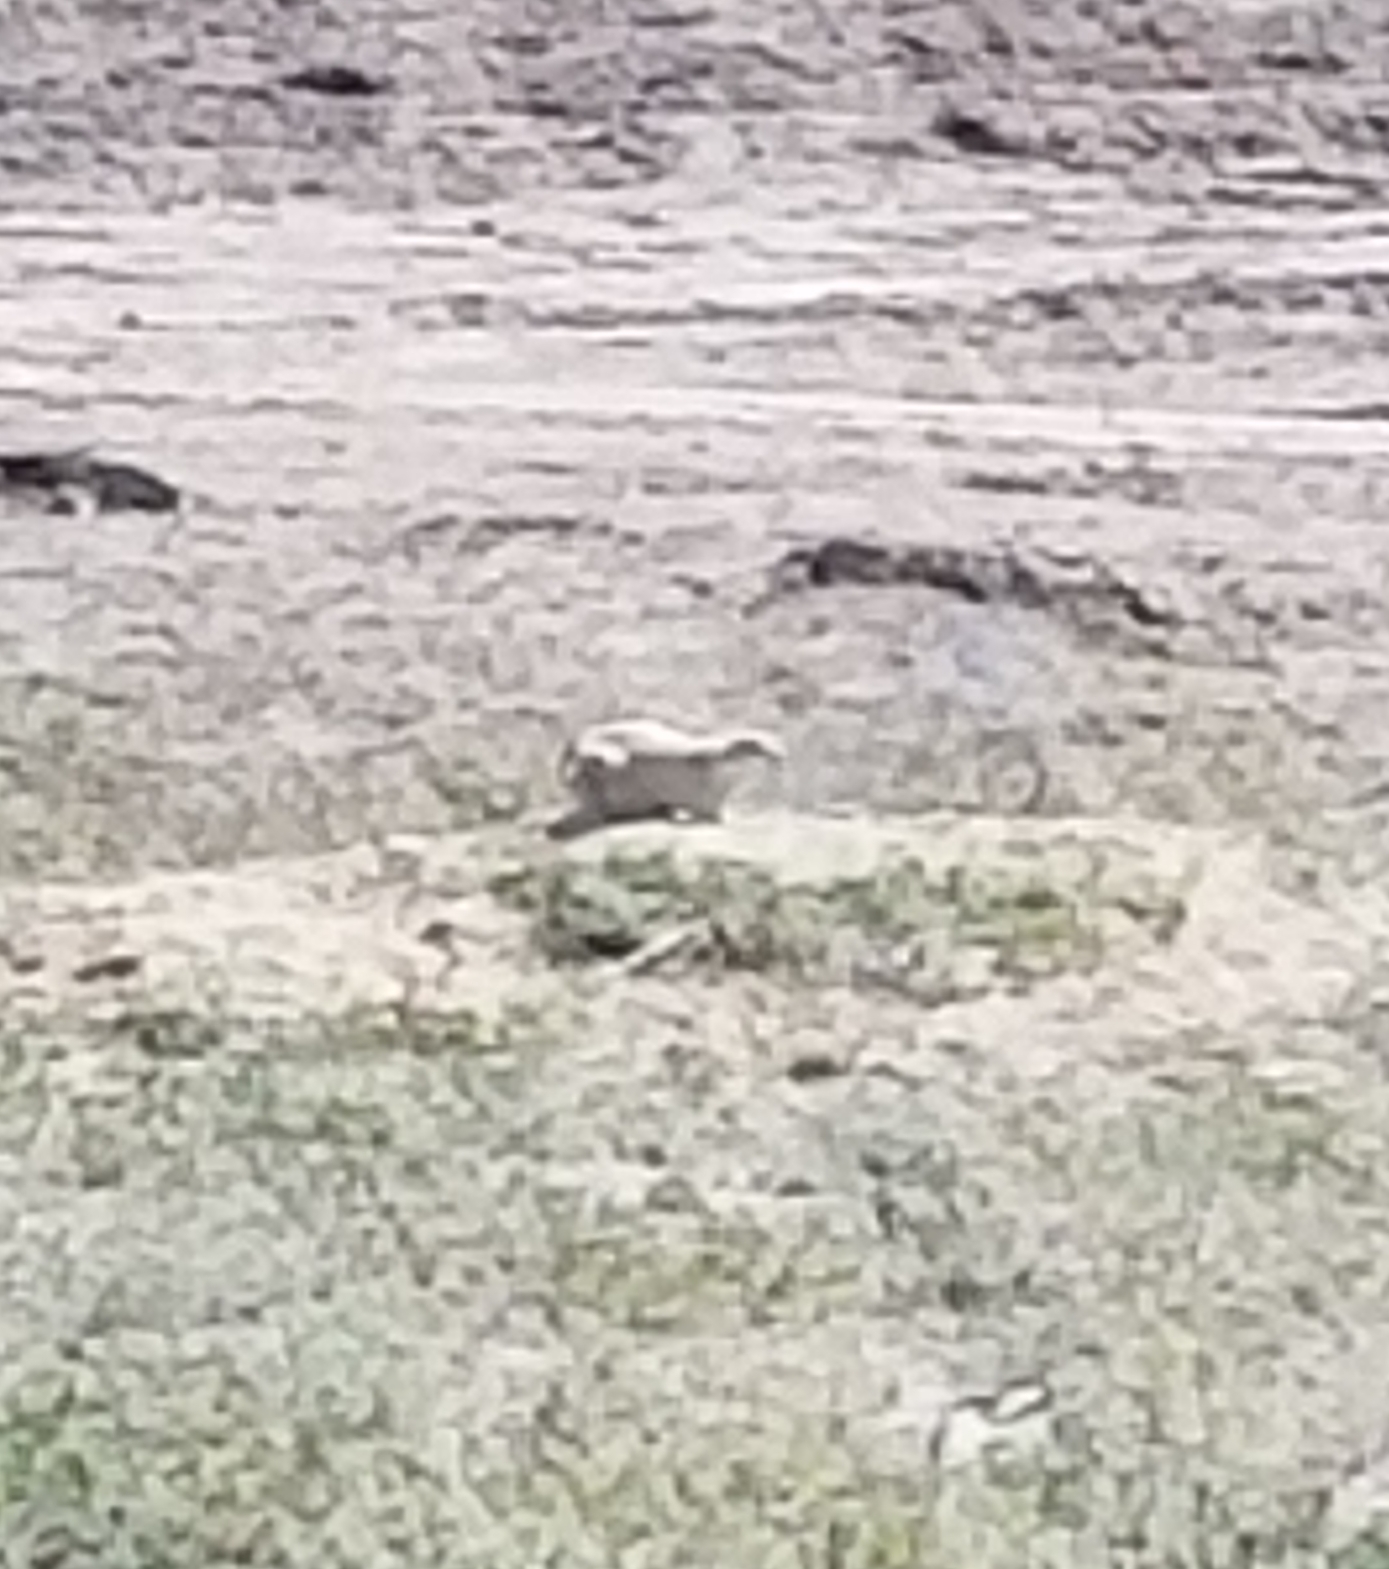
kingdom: Animalia
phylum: Chordata
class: Mammalia
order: Rodentia
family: Sciuridae
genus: Cynomys
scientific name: Cynomys ludovicianus
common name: Black-tailed prairie dog
